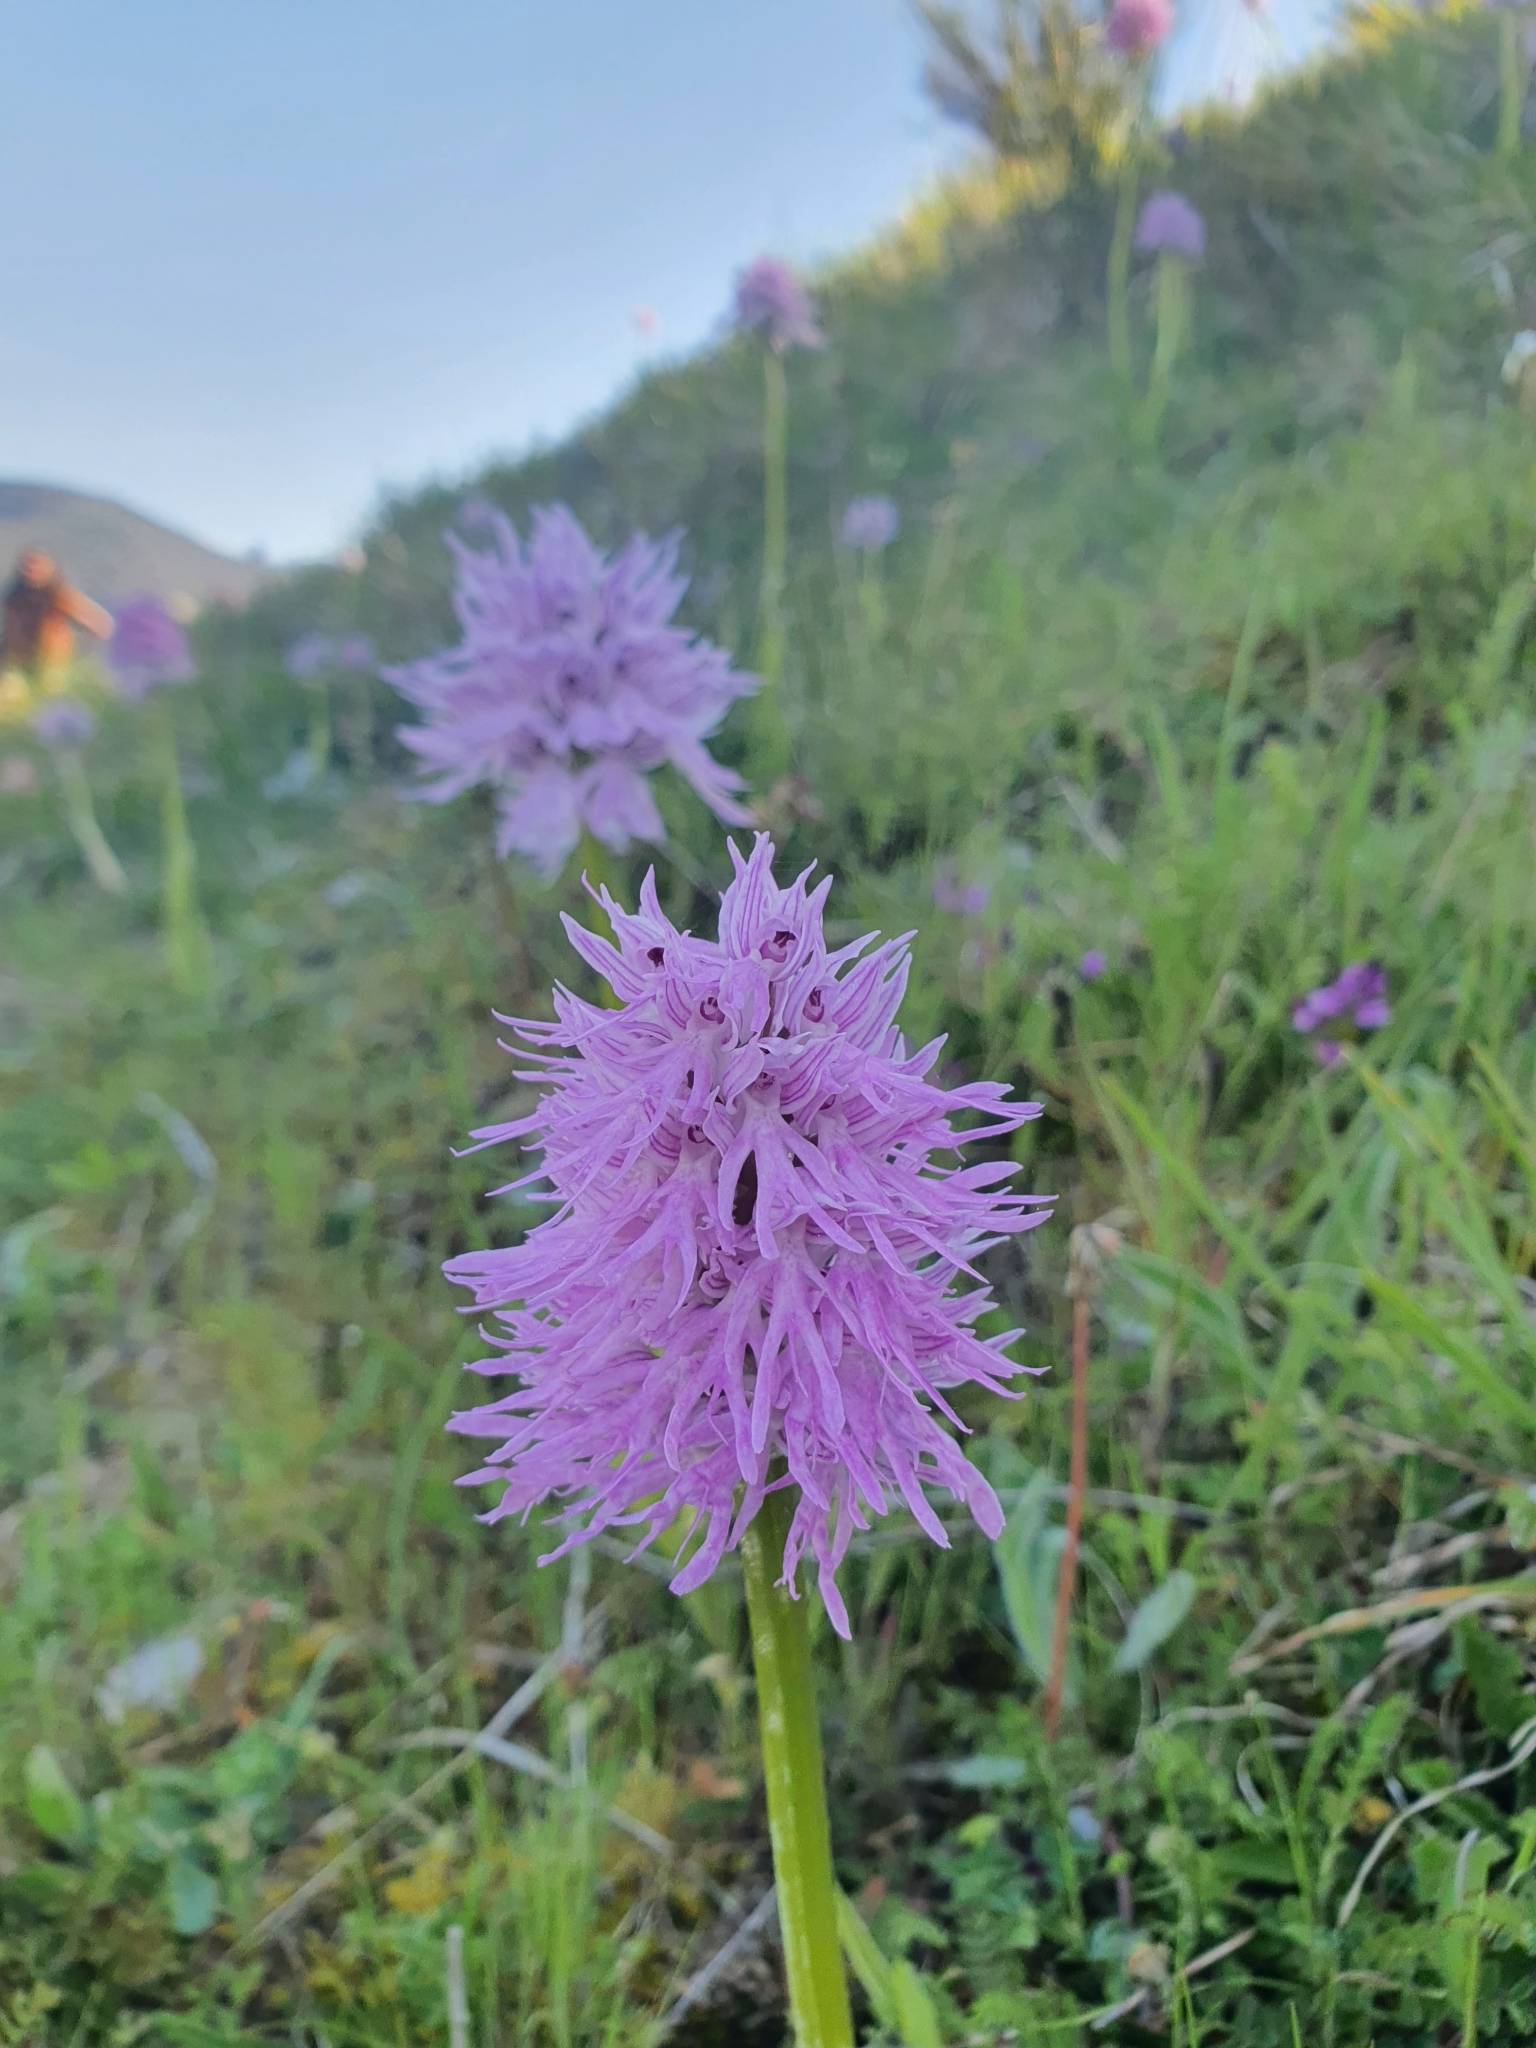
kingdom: Plantae
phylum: Tracheophyta
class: Liliopsida
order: Asparagales
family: Orchidaceae
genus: Orchis
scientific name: Orchis italica
